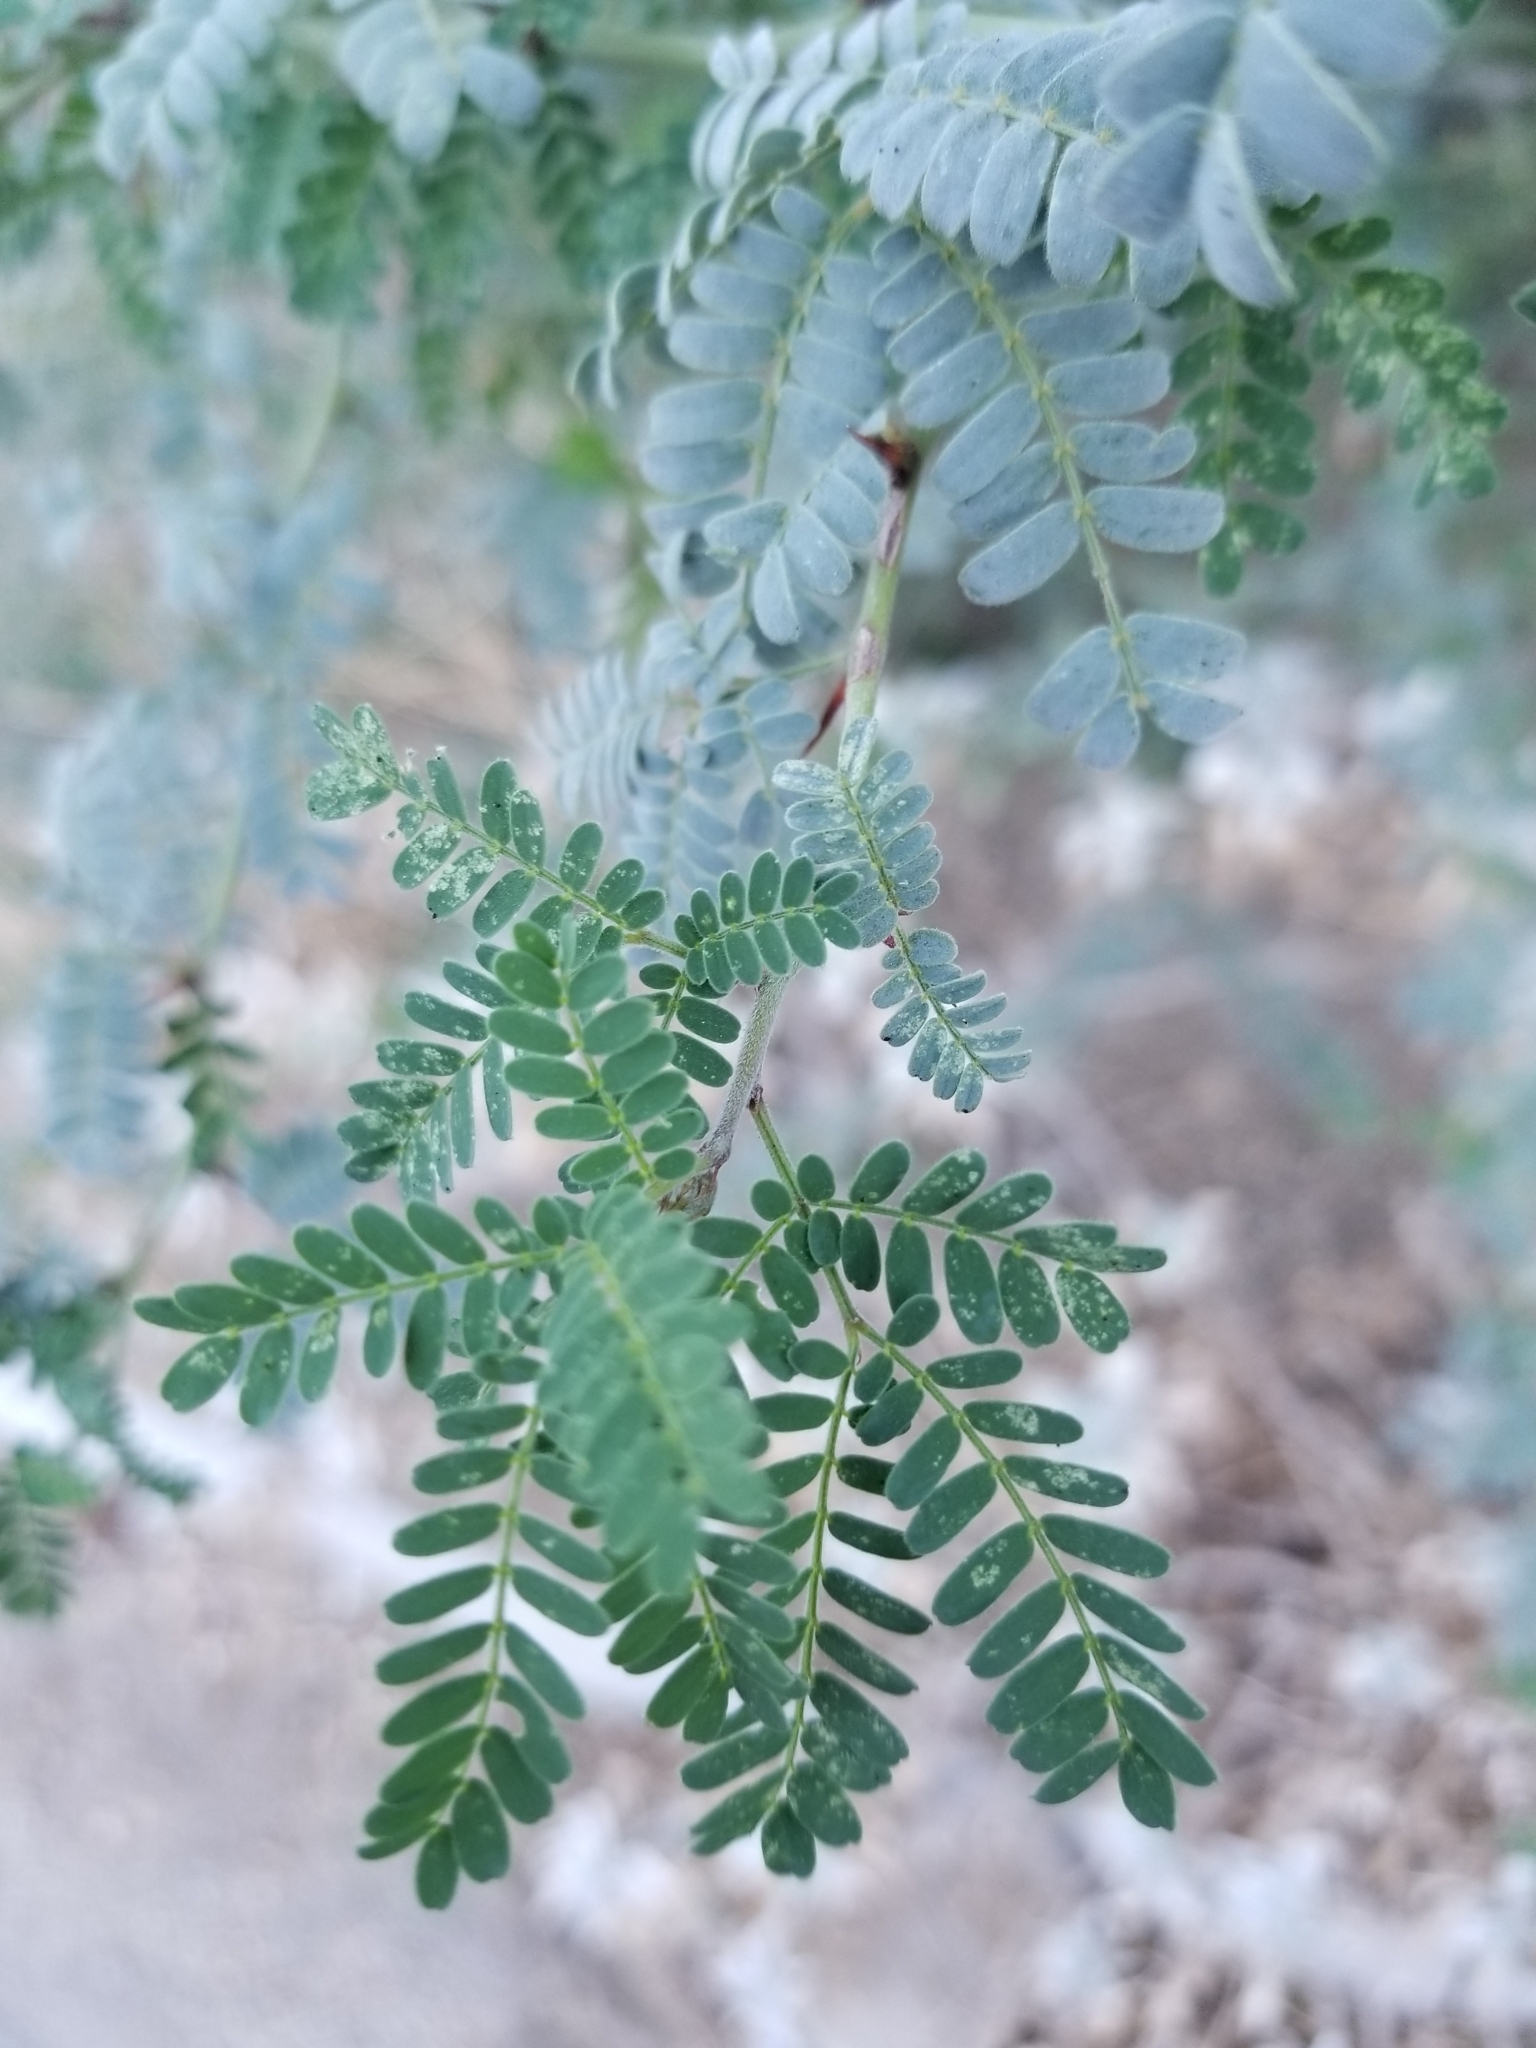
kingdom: Plantae
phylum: Tracheophyta
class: Magnoliopsida
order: Fabales
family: Fabaceae
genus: Parkinsonia
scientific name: Parkinsonia praecox
